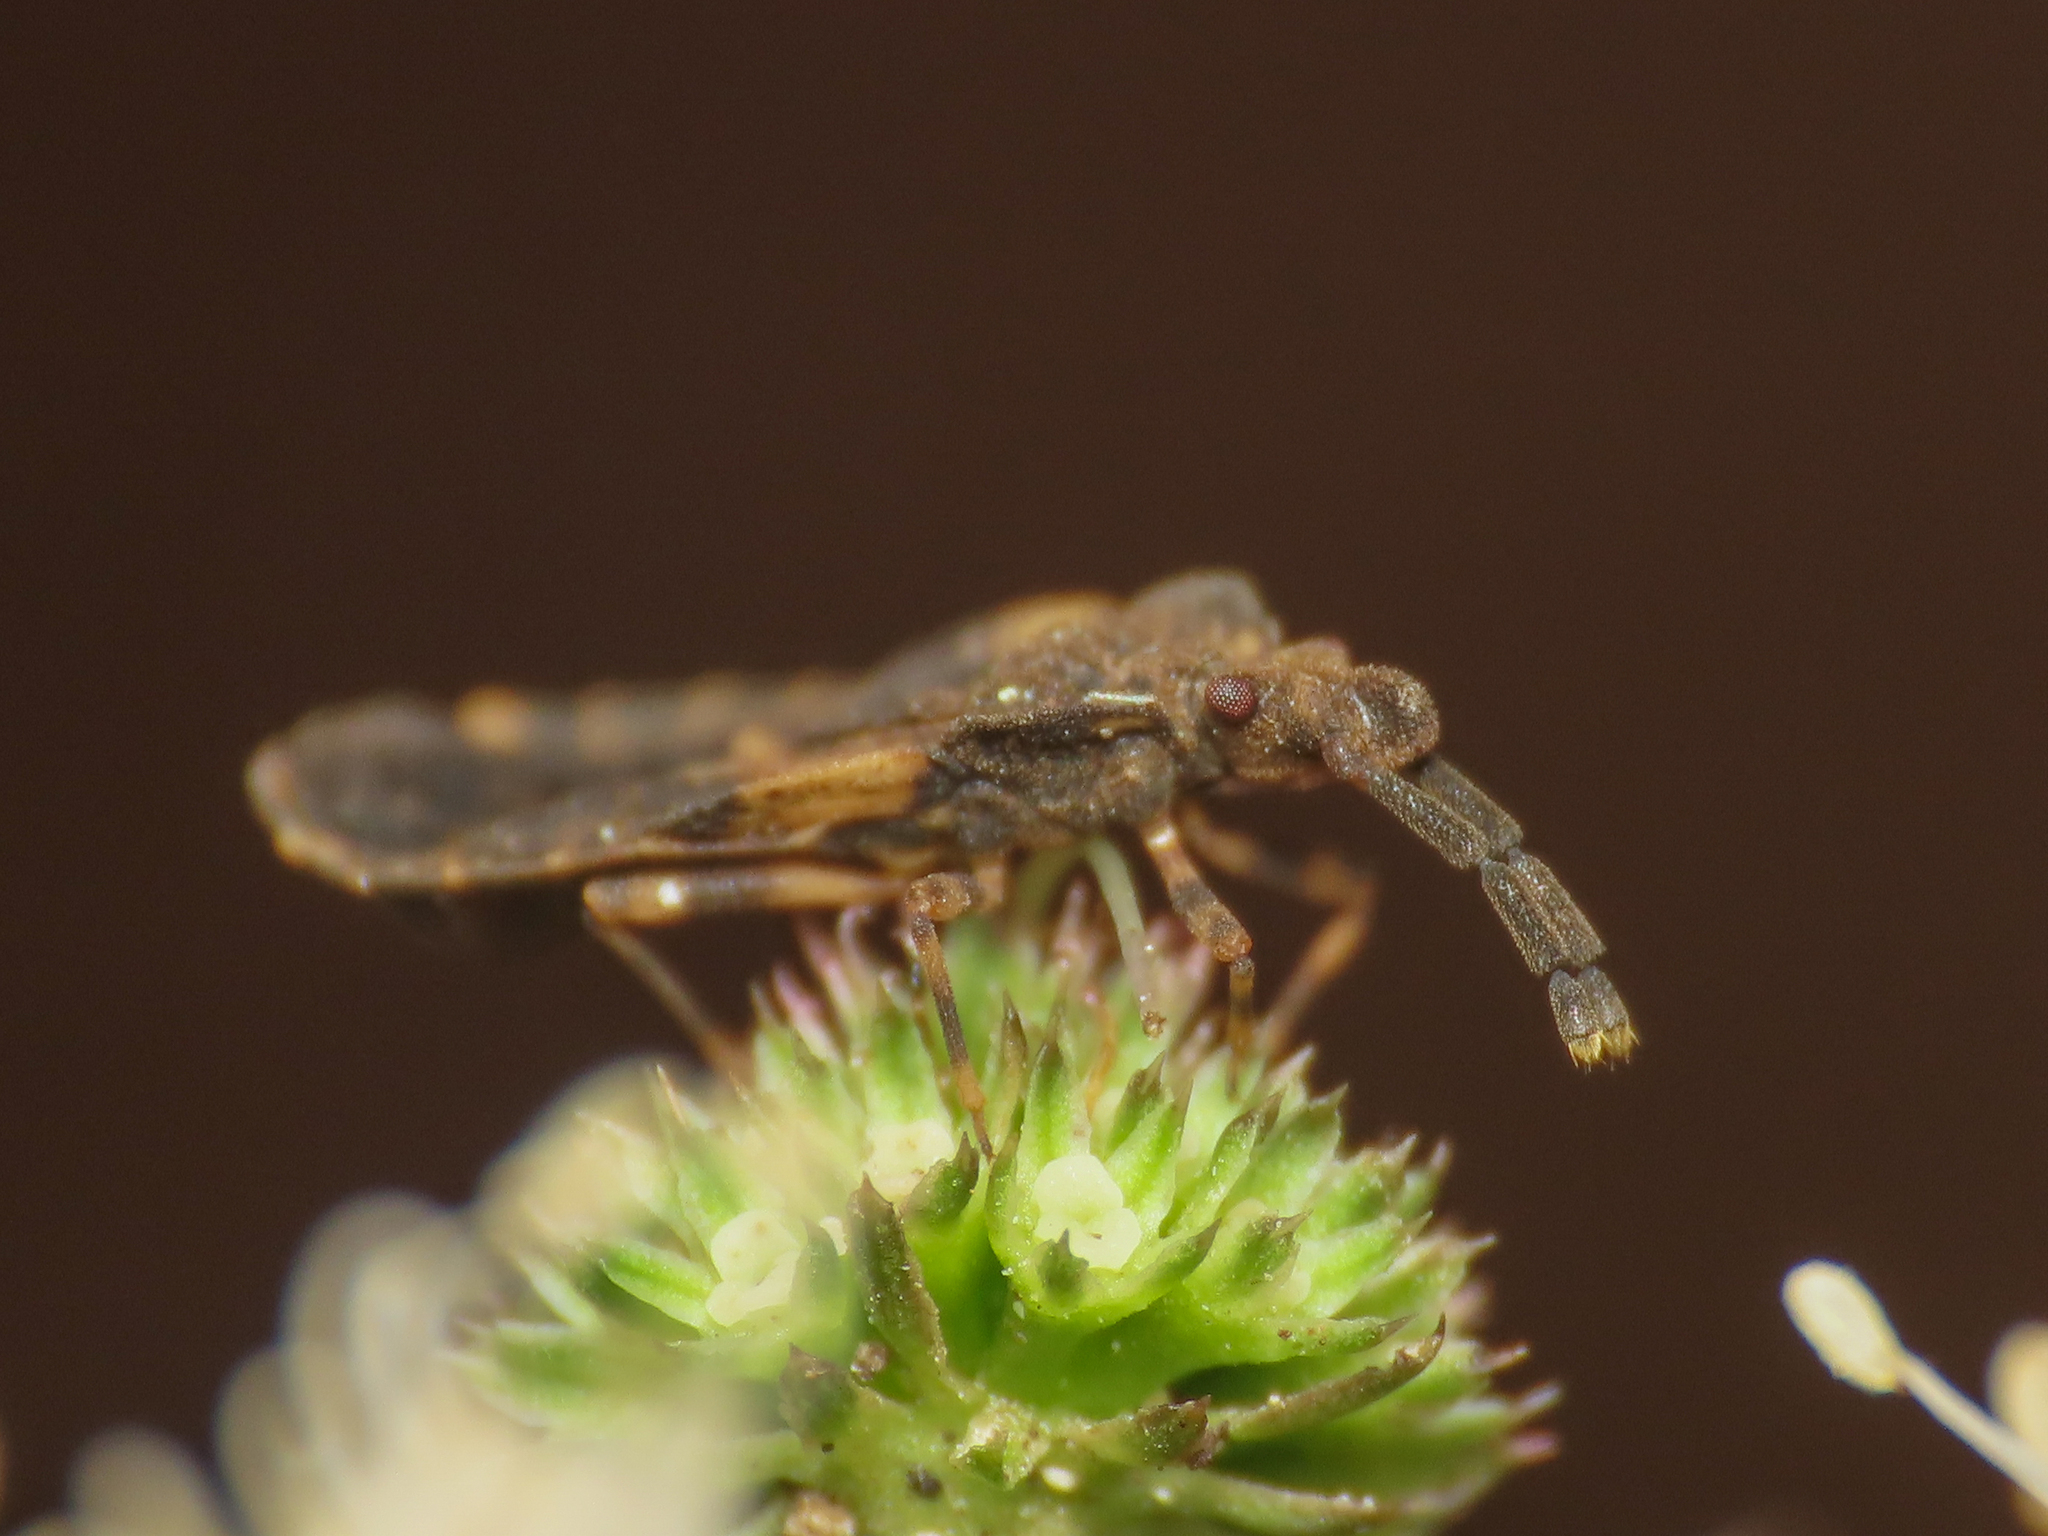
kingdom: Animalia
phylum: Arthropoda
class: Insecta
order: Hemiptera
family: Aradidae
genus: Aradus
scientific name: Aradus somcheticus
